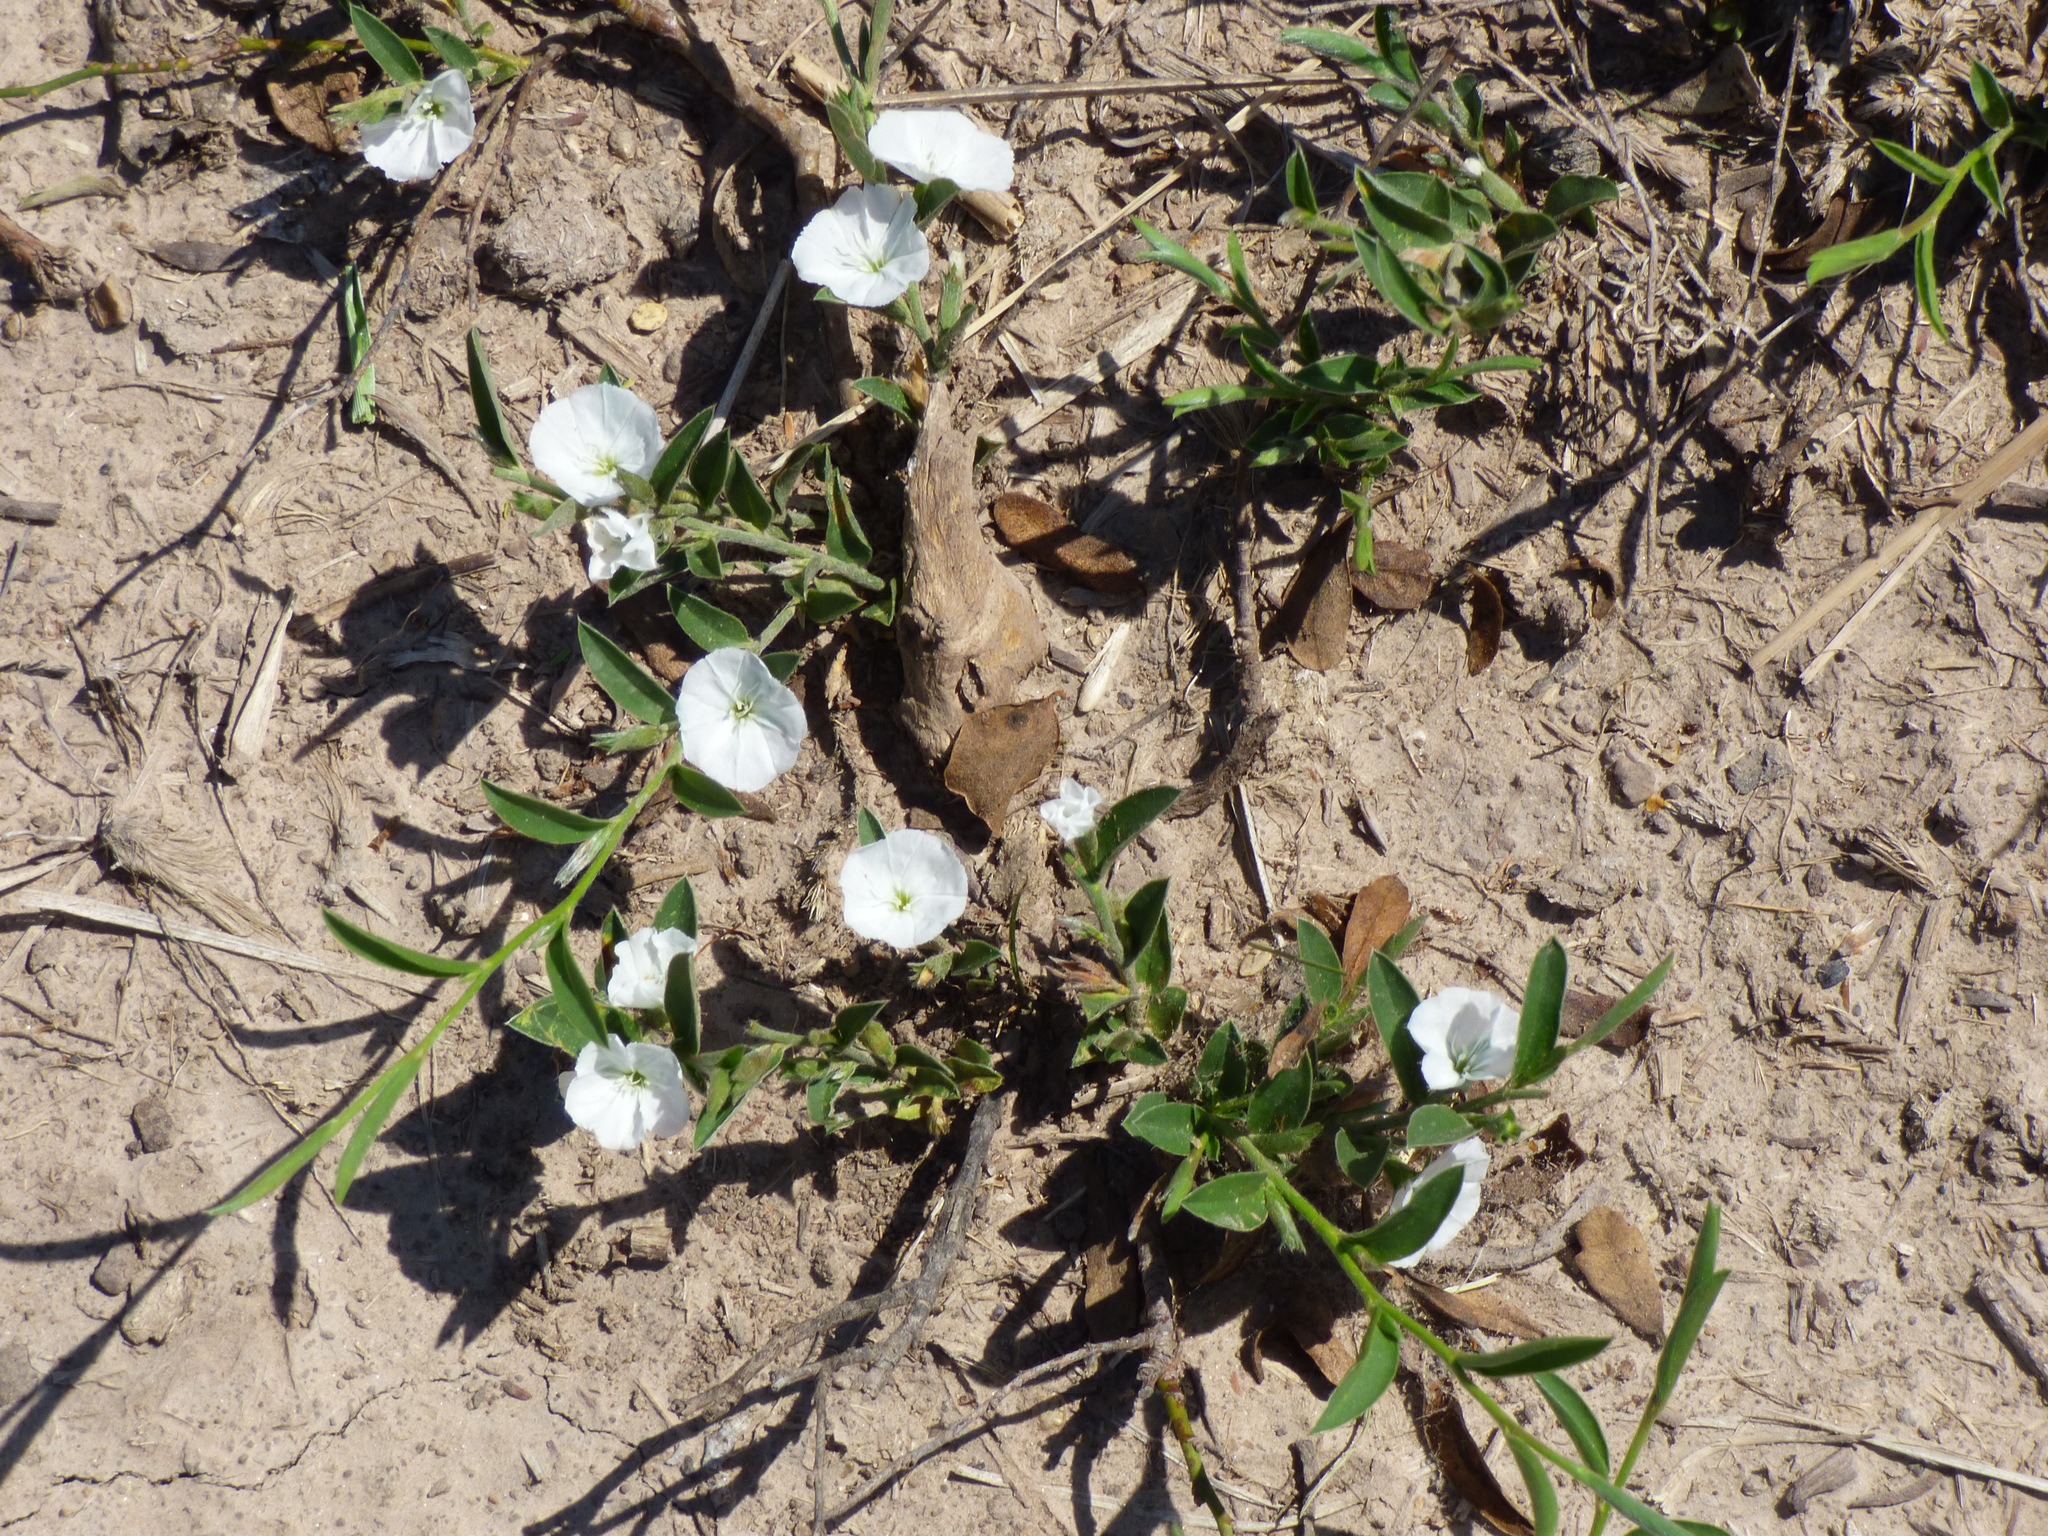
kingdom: Plantae
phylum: Tracheophyta
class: Magnoliopsida
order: Solanales
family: Convolvulaceae
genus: Evolvulus
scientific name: Evolvulus sericeus
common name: Blue dots
